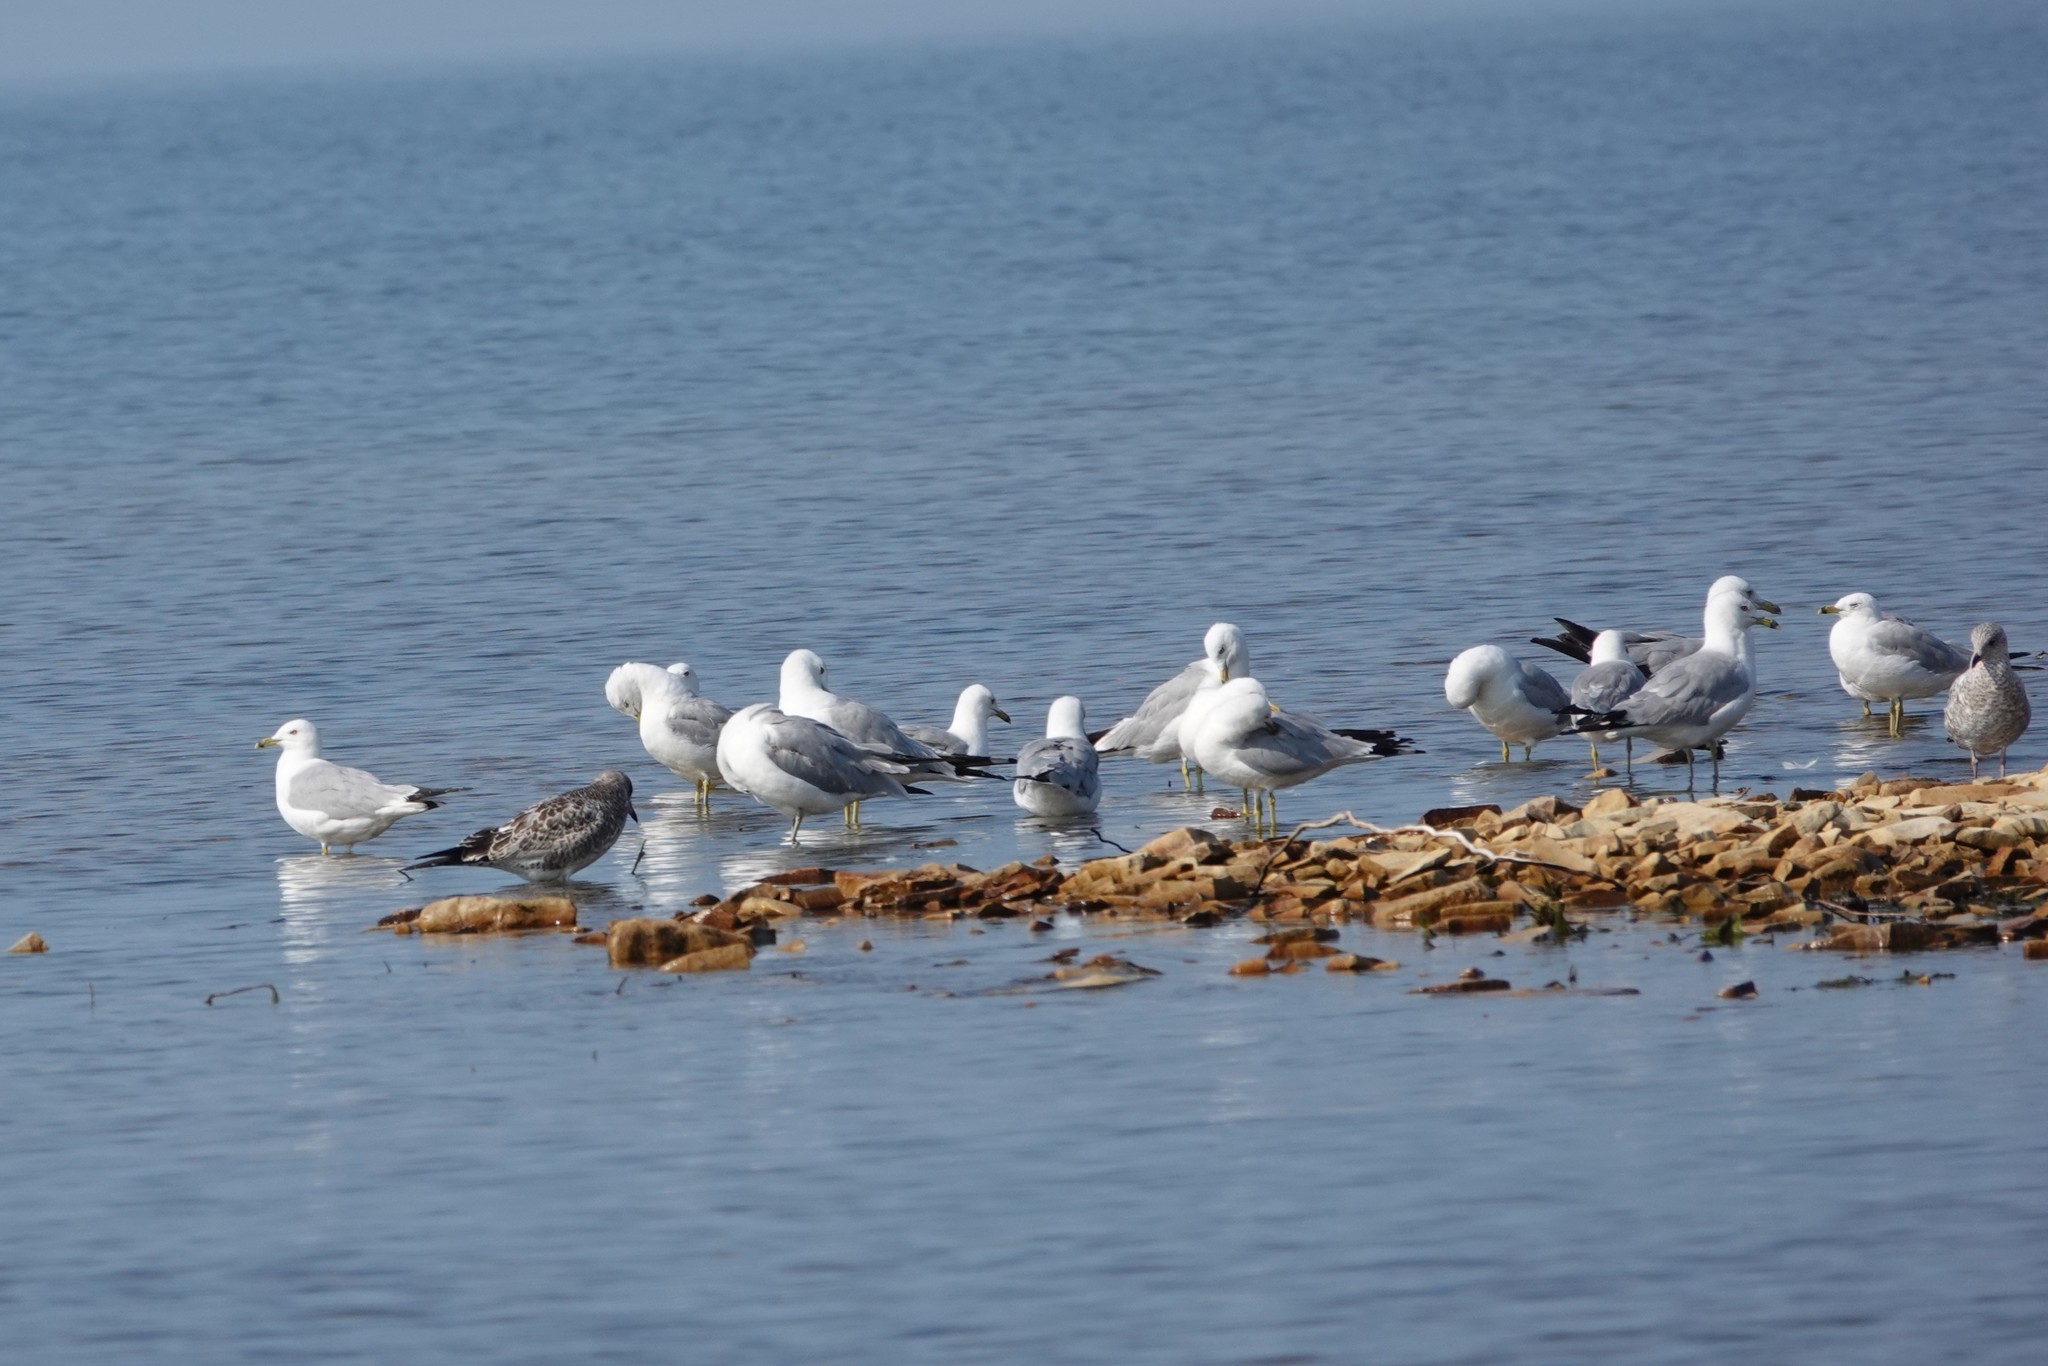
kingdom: Animalia
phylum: Chordata
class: Aves
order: Charadriiformes
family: Laridae
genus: Larus
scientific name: Larus delawarensis
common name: Ring-billed gull
